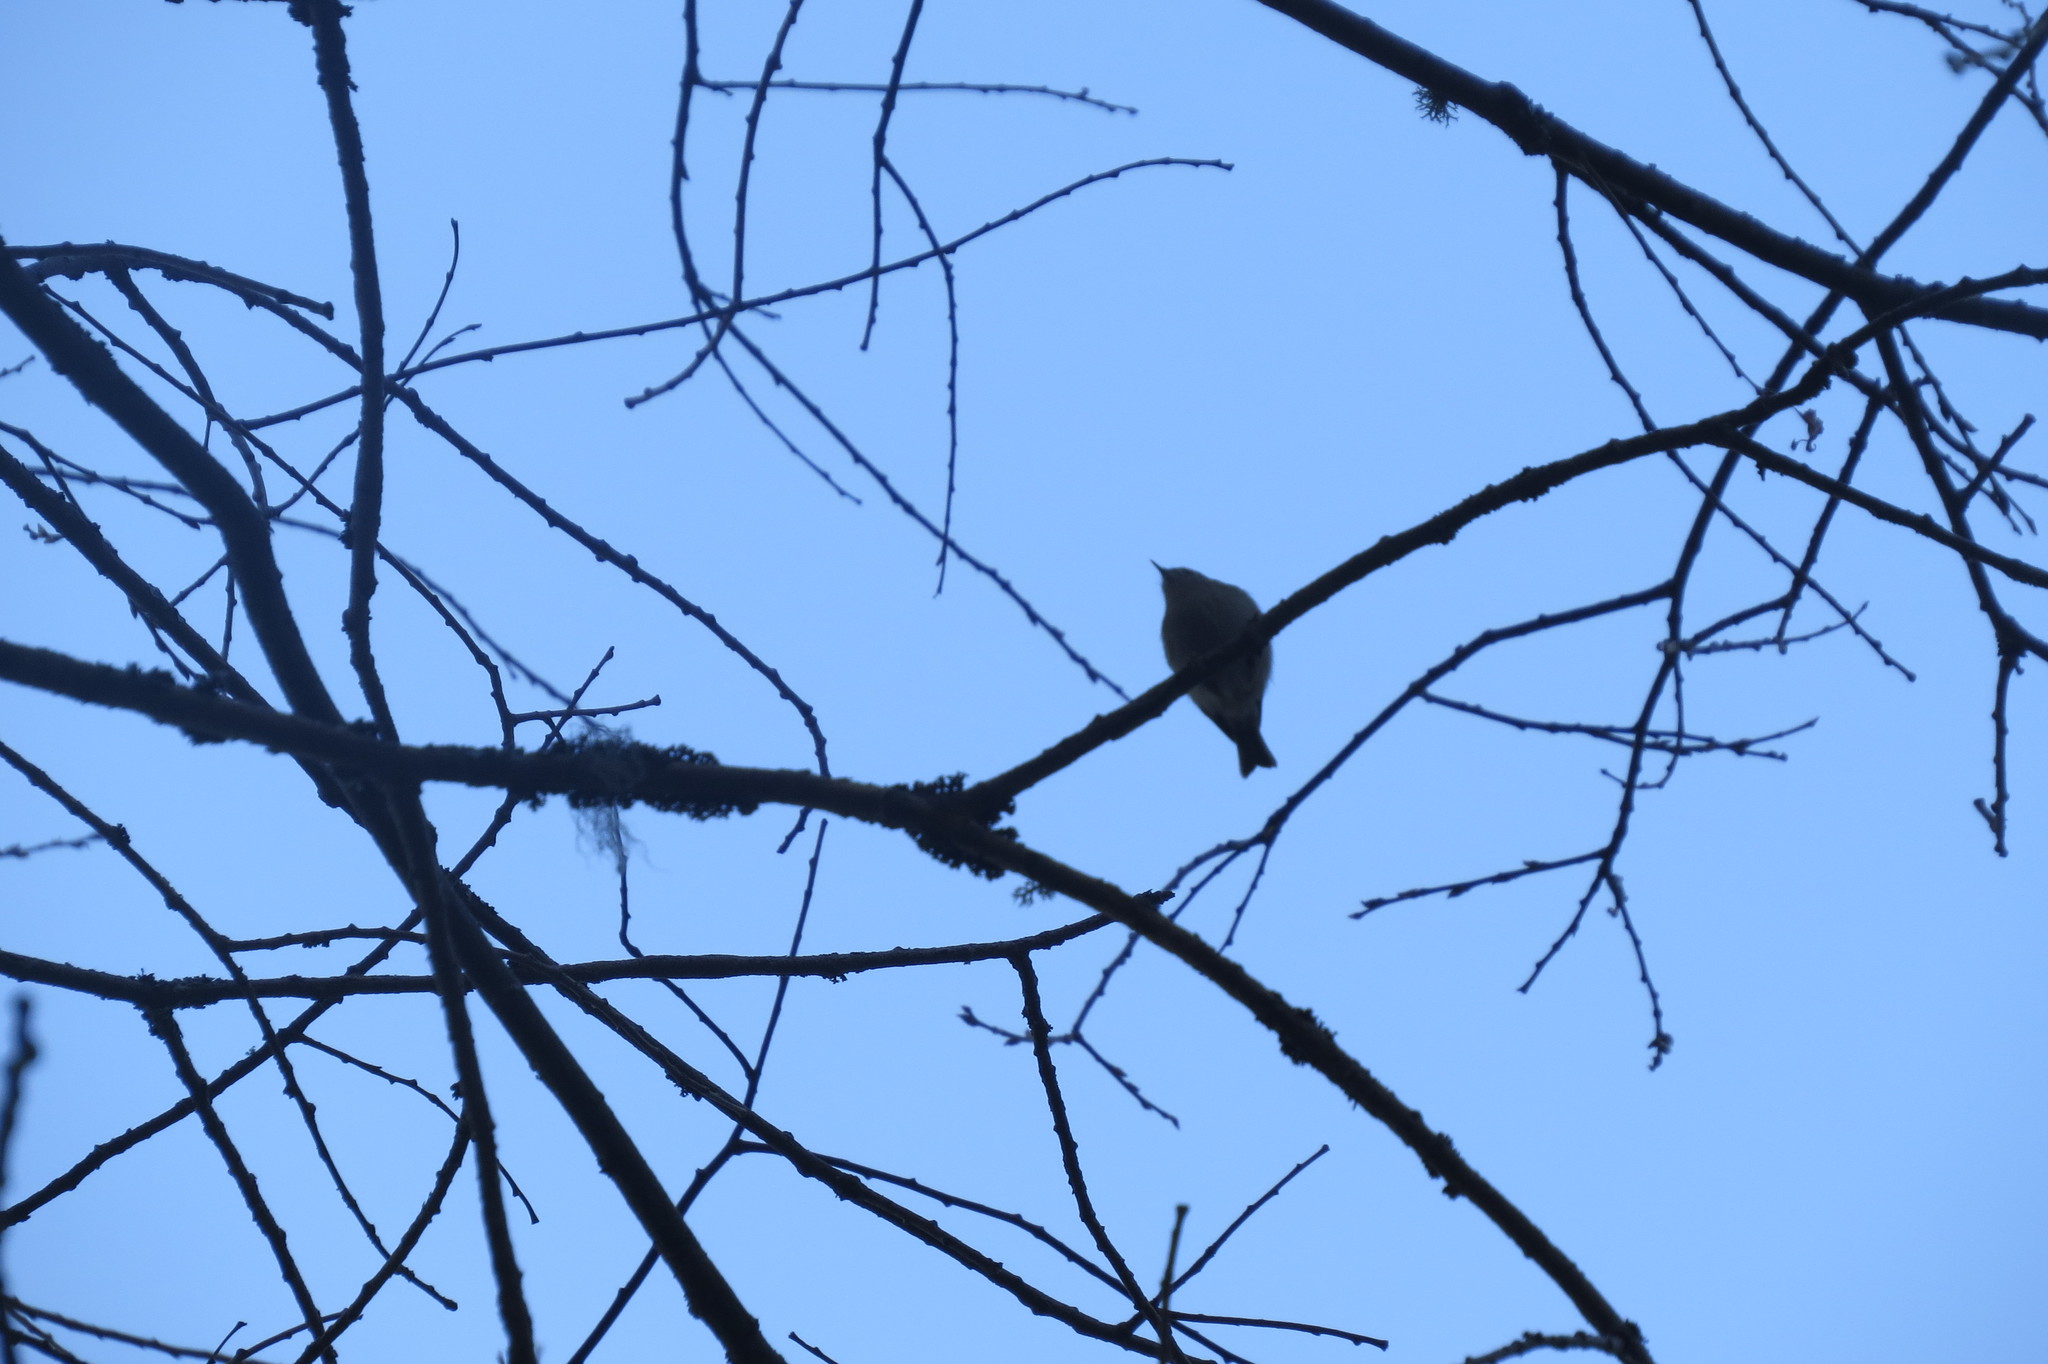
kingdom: Animalia
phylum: Chordata
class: Aves
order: Passeriformes
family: Regulidae
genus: Regulus
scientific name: Regulus regulus
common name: Goldcrest
